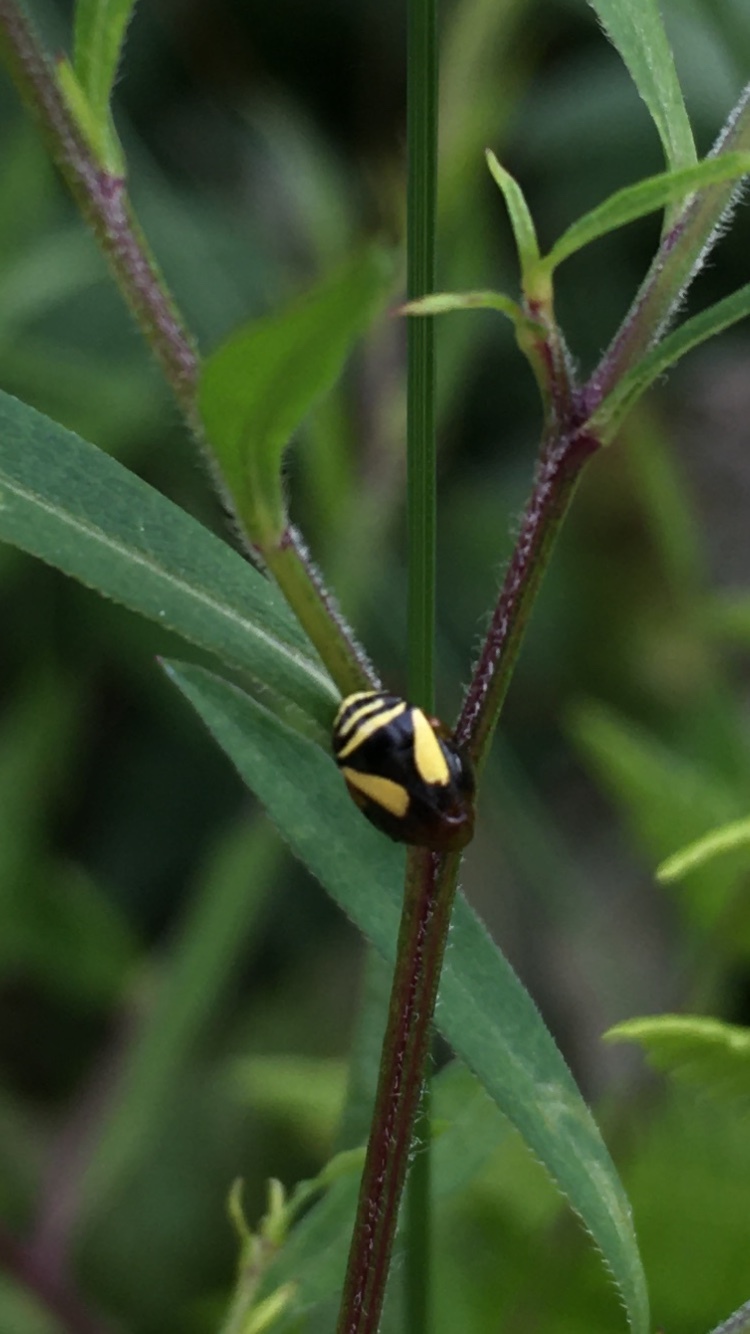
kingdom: Animalia
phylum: Arthropoda
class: Insecta
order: Hemiptera
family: Clastopteridae
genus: Clastoptera
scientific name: Clastoptera proteus
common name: Dogwood spittlebug
